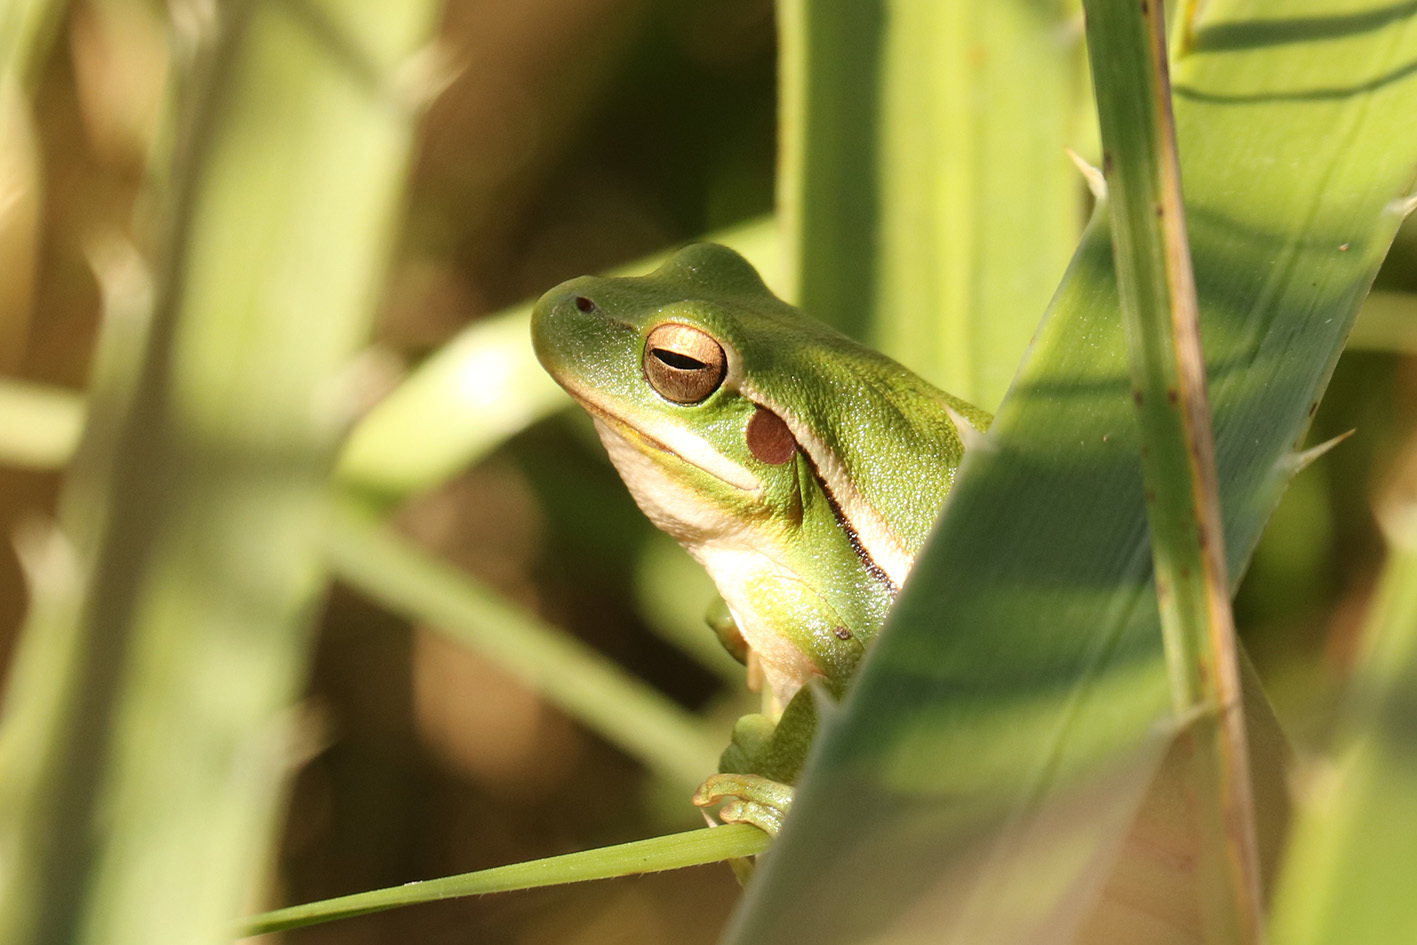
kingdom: Animalia
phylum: Chordata
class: Amphibia
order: Anura
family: Hylidae
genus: Boana
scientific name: Boana pulchella
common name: Montevideo treefrog
